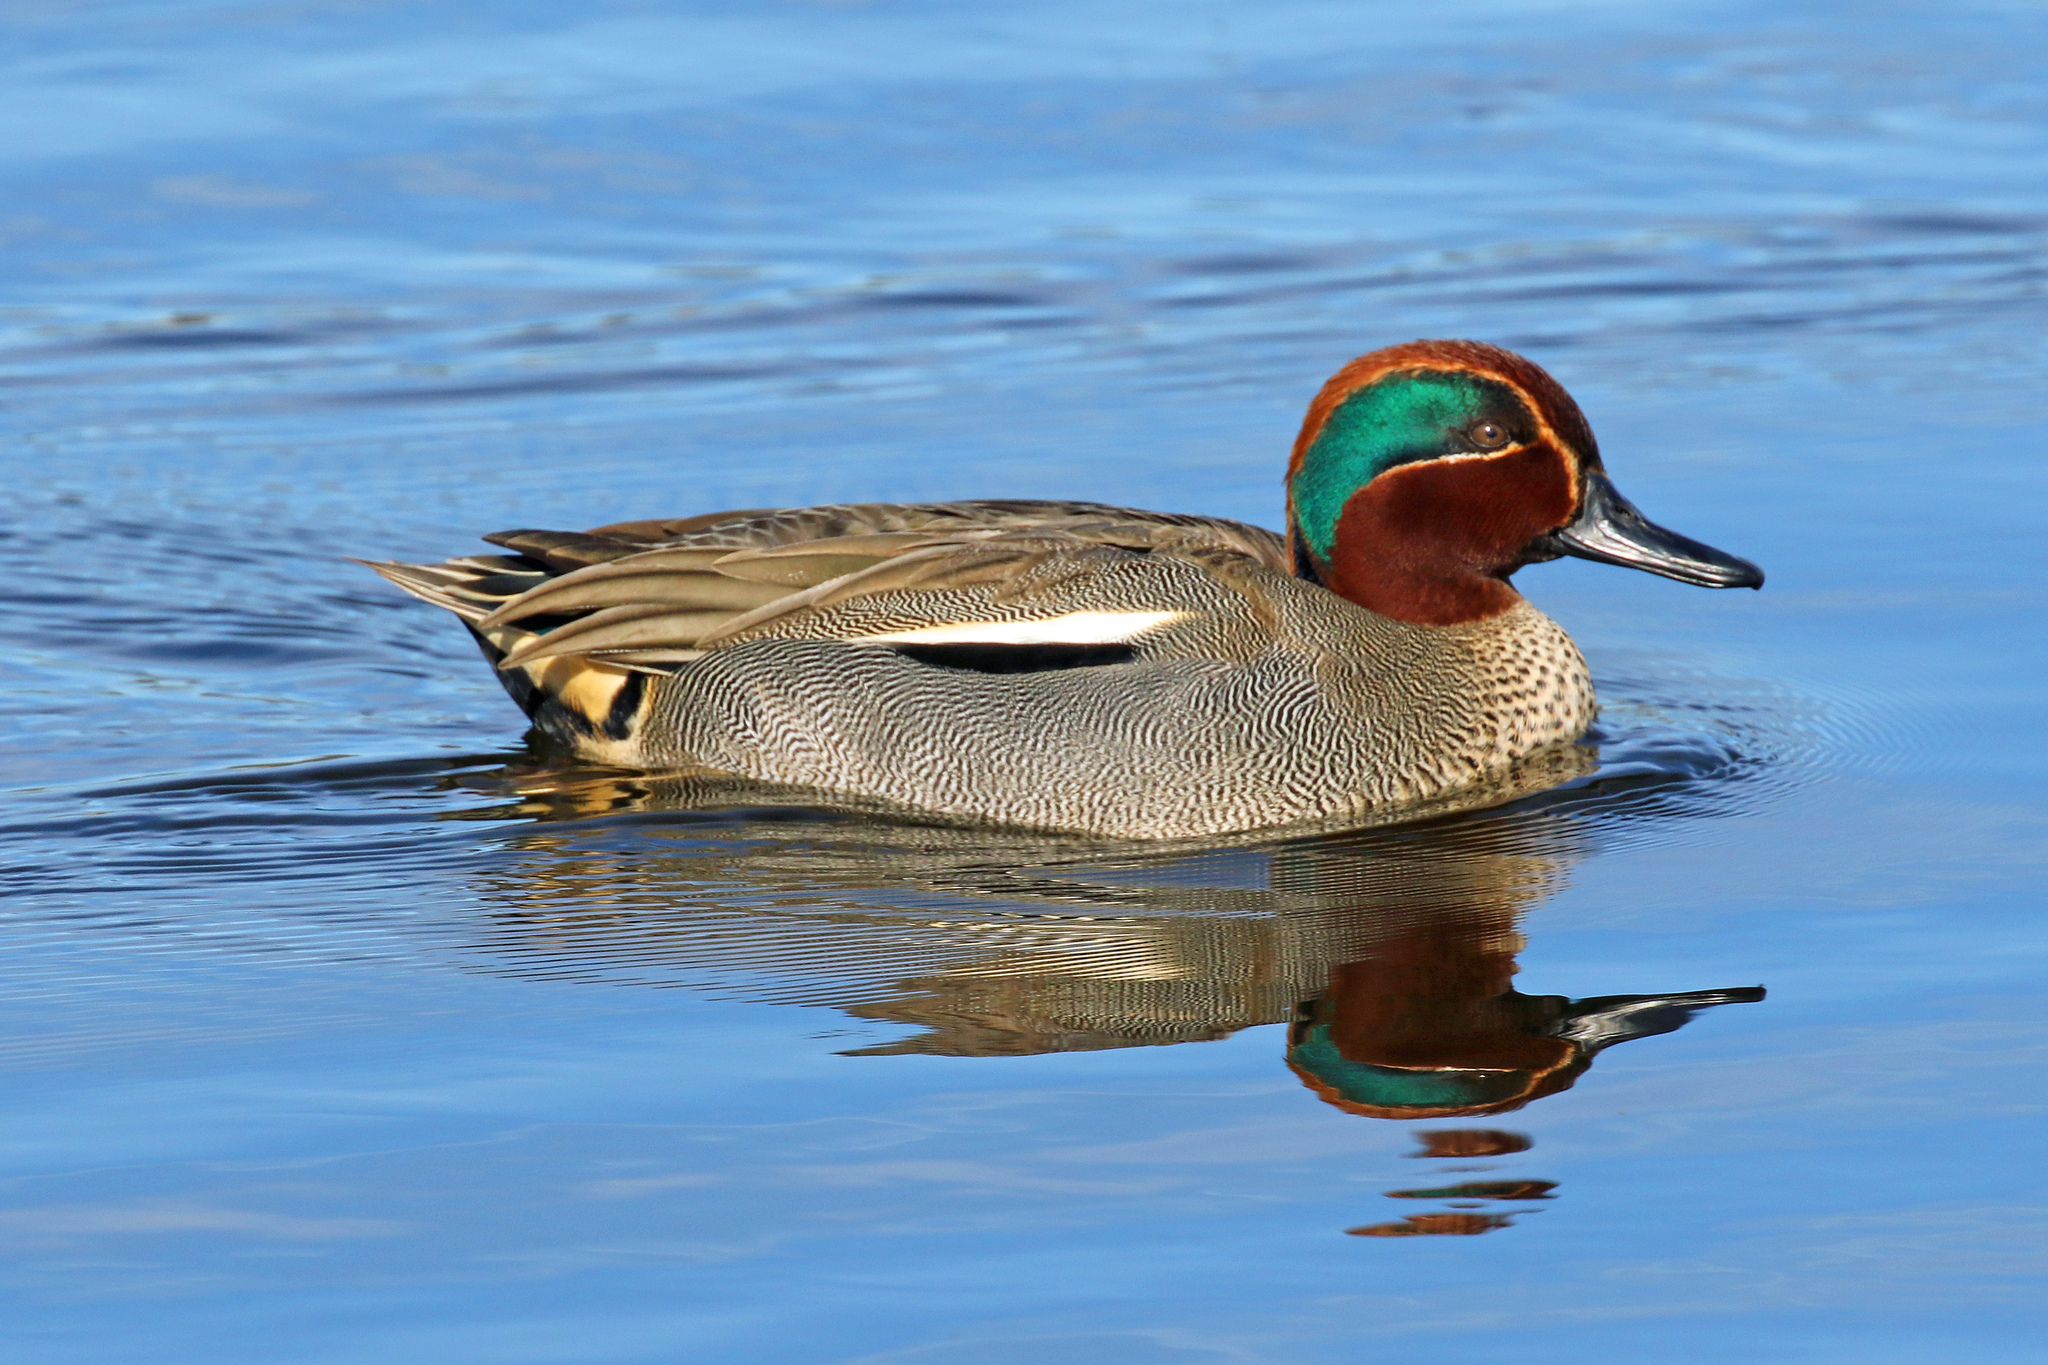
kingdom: Animalia
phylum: Chordata
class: Aves
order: Anseriformes
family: Anatidae
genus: Anas
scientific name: Anas crecca
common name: Eurasian teal
